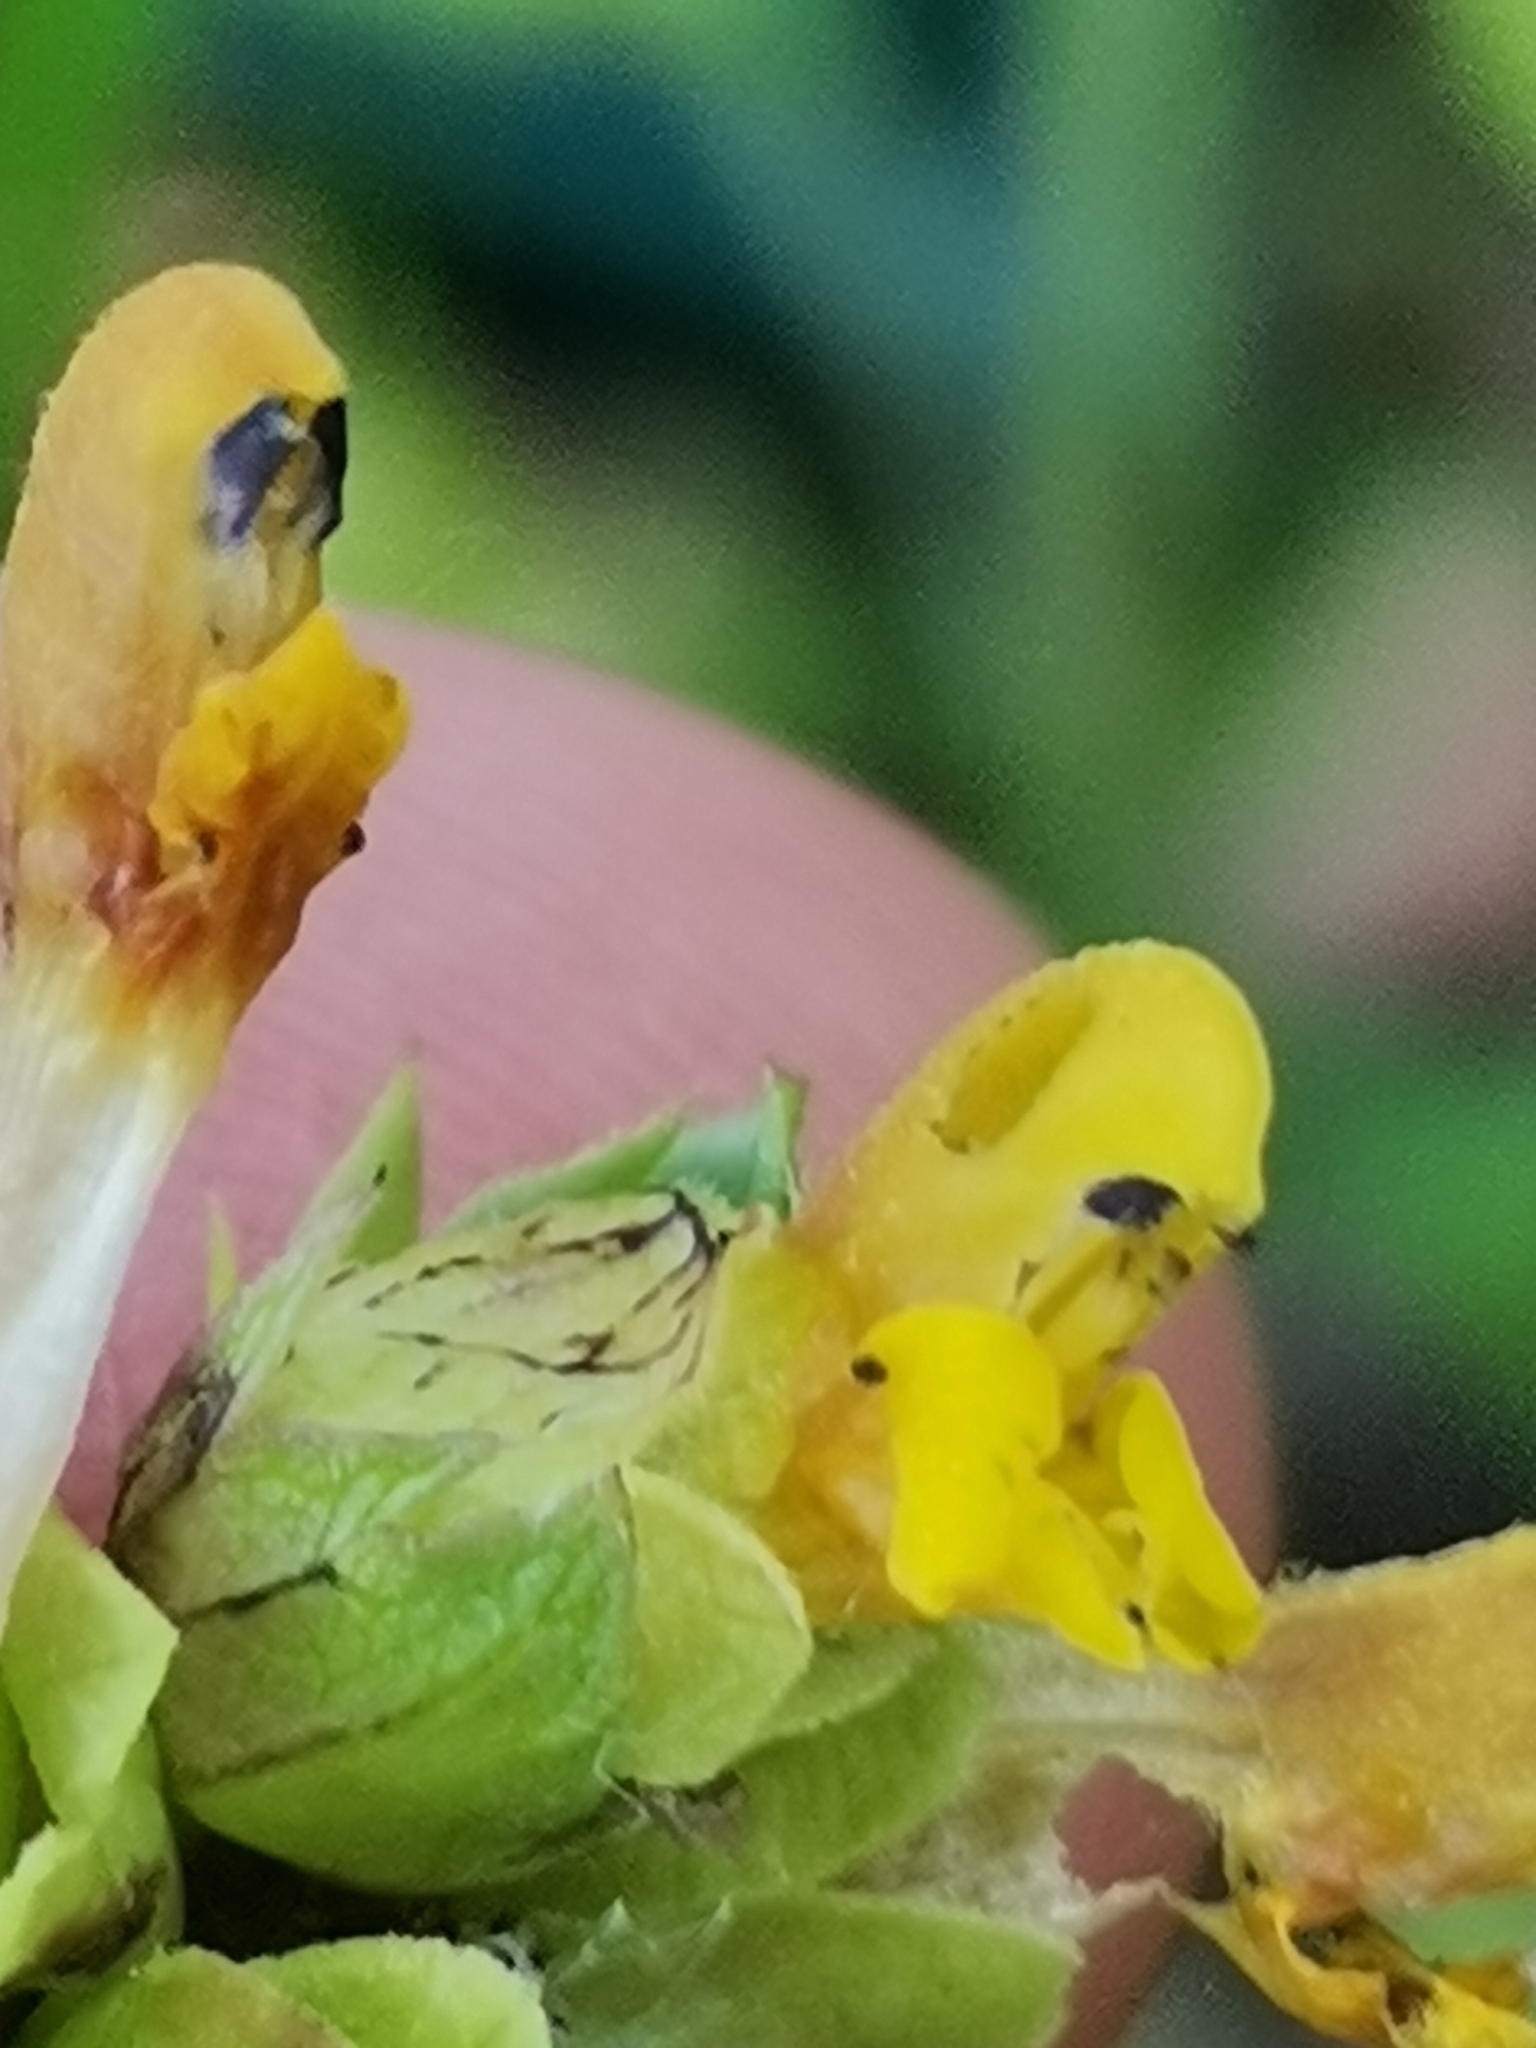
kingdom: Plantae
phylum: Tracheophyta
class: Magnoliopsida
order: Lamiales
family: Orobanchaceae
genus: Rhinanthus
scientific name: Rhinanthus minor
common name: Yellow-rattle
